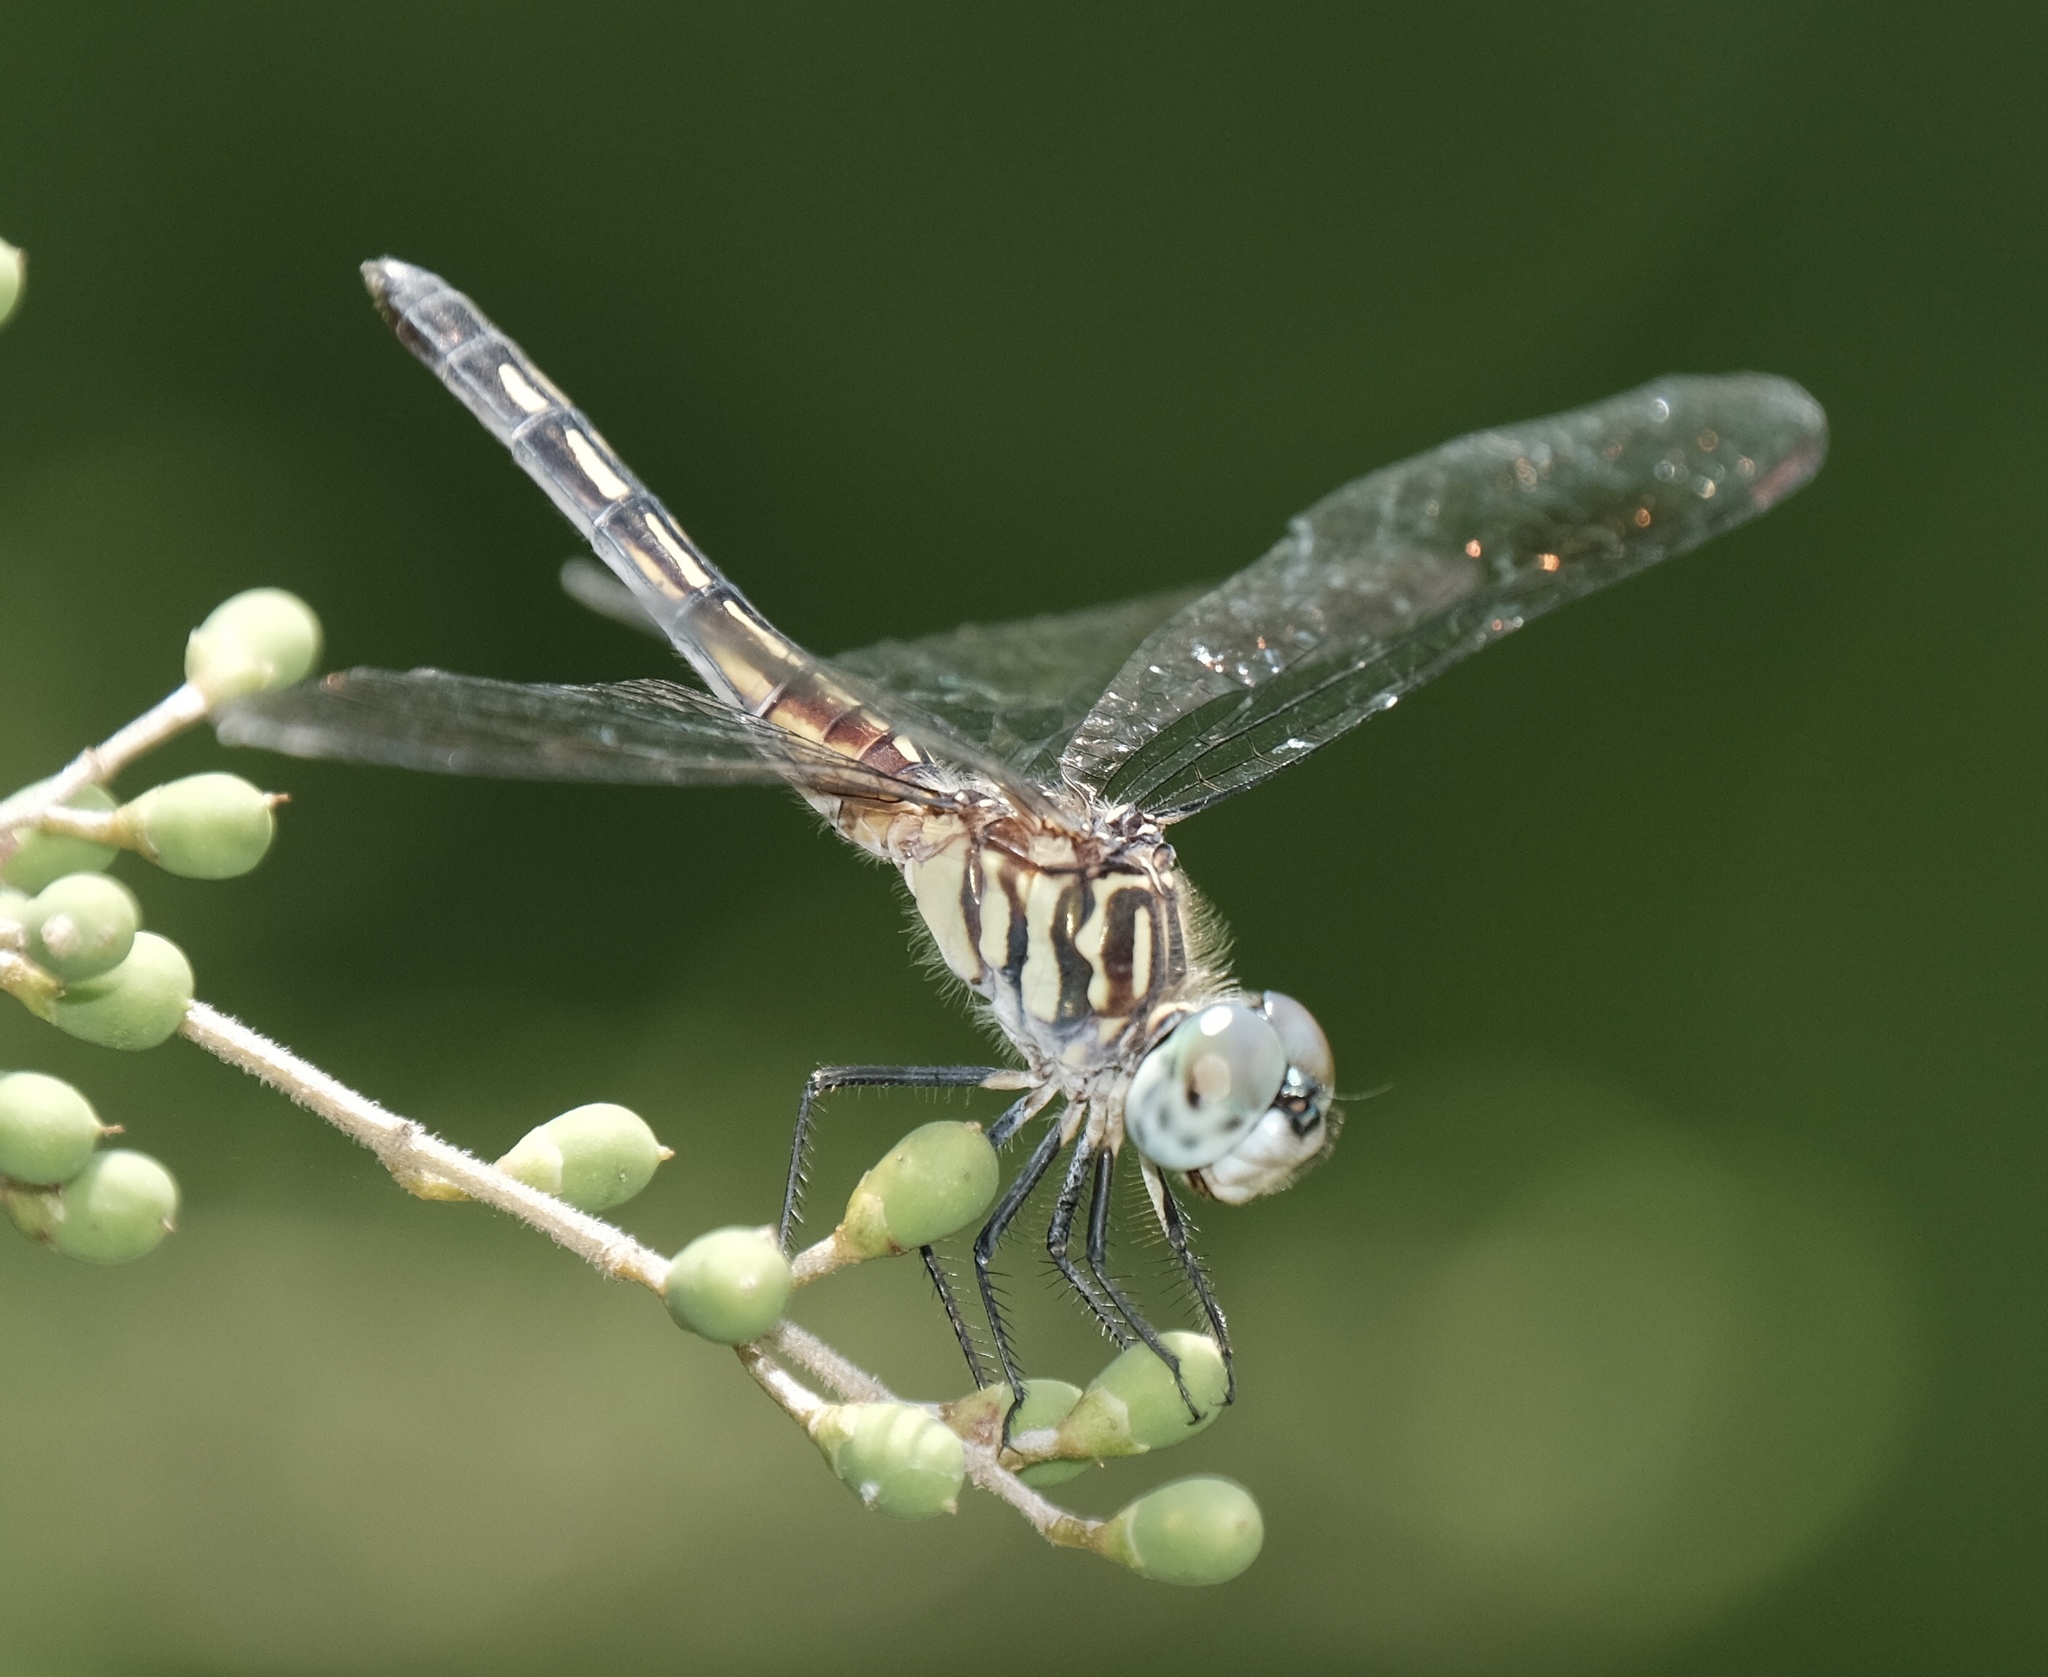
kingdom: Animalia
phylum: Arthropoda
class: Insecta
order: Odonata
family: Libellulidae
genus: Pachydiplax
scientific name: Pachydiplax longipennis
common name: Blue dasher
